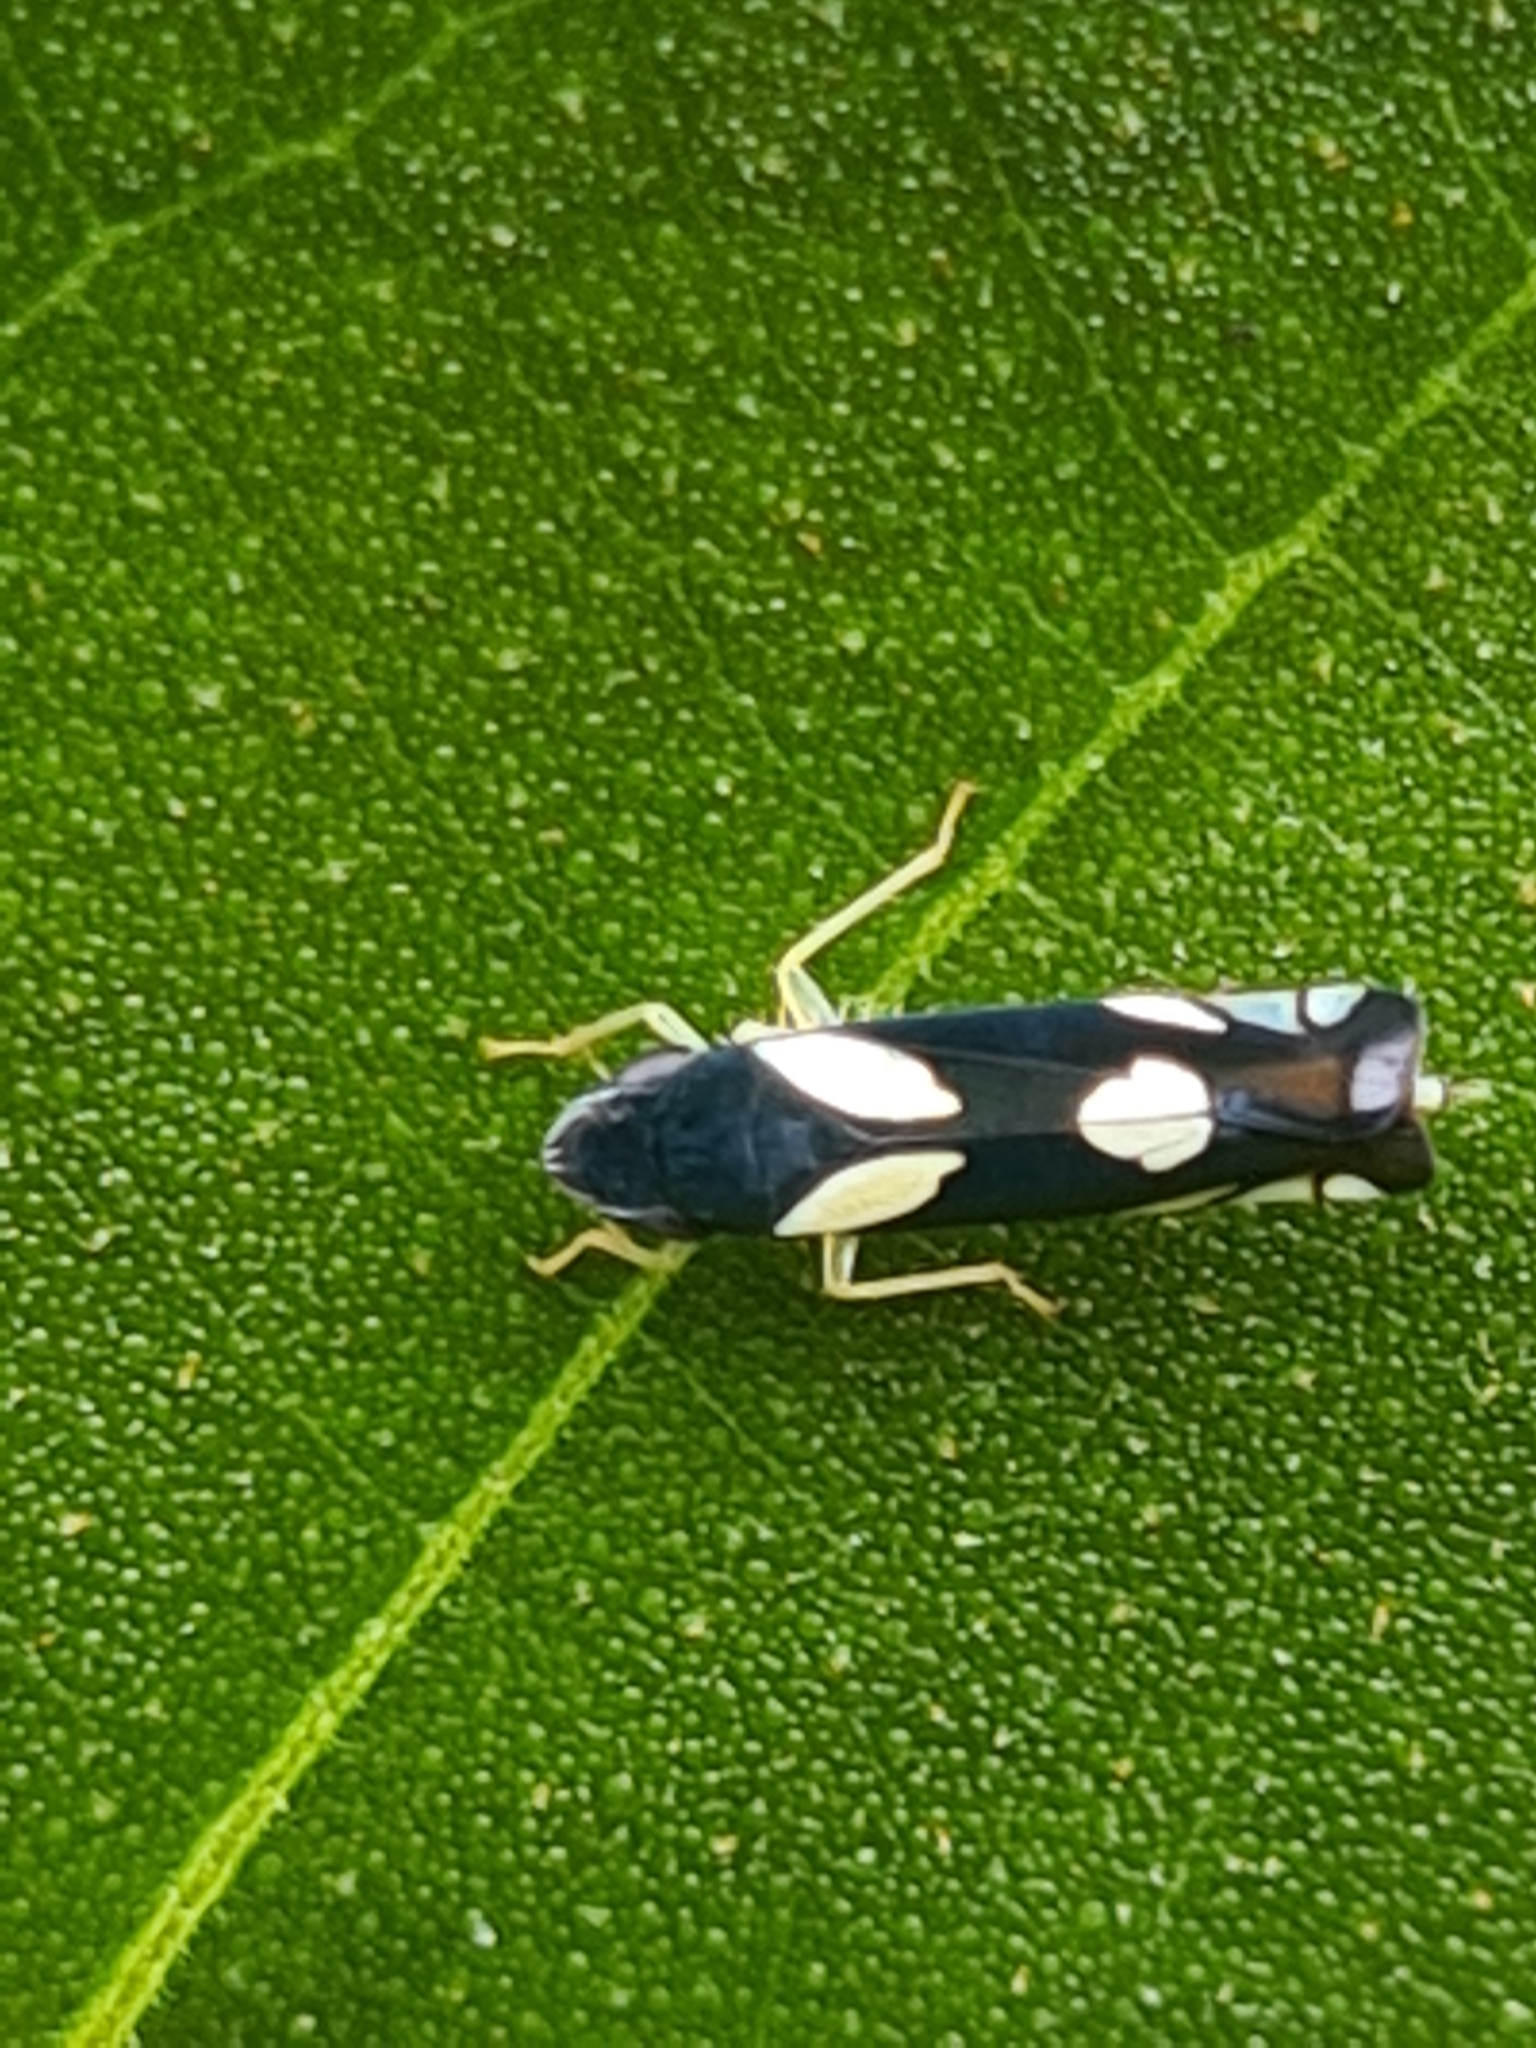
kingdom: Animalia
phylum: Arthropoda
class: Insecta
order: Hemiptera
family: Cicadellidae
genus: Microgoniella
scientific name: Microgoniella illustris
